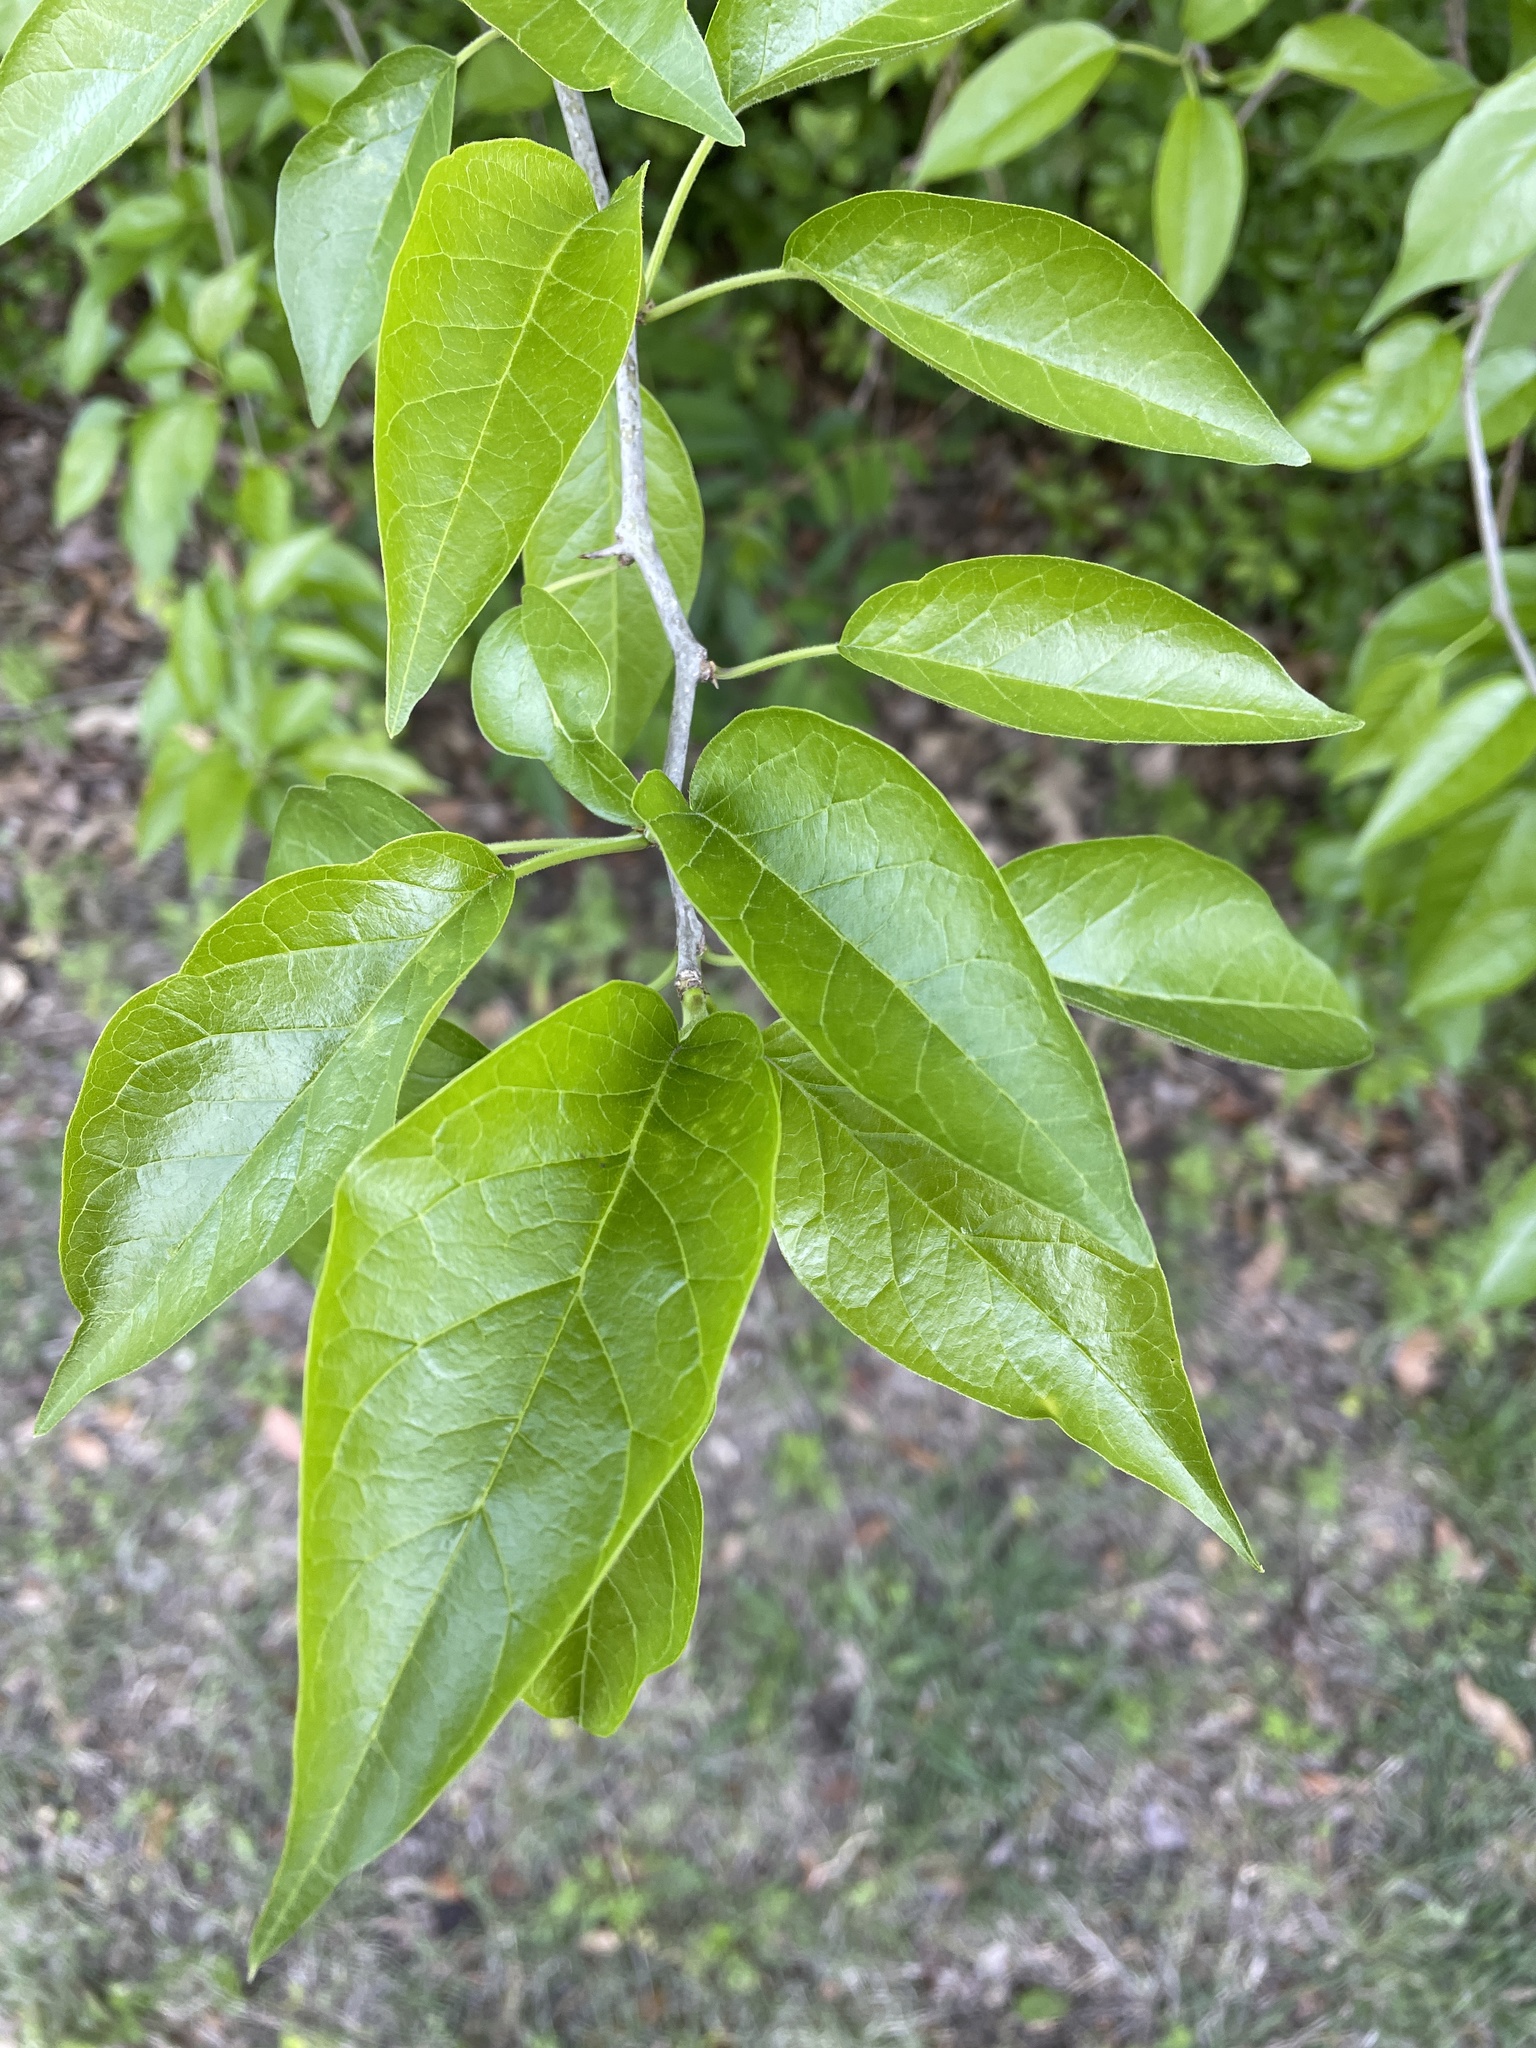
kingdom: Plantae
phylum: Tracheophyta
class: Magnoliopsida
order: Rosales
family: Moraceae
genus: Maclura
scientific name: Maclura pomifera
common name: Osage-orange
